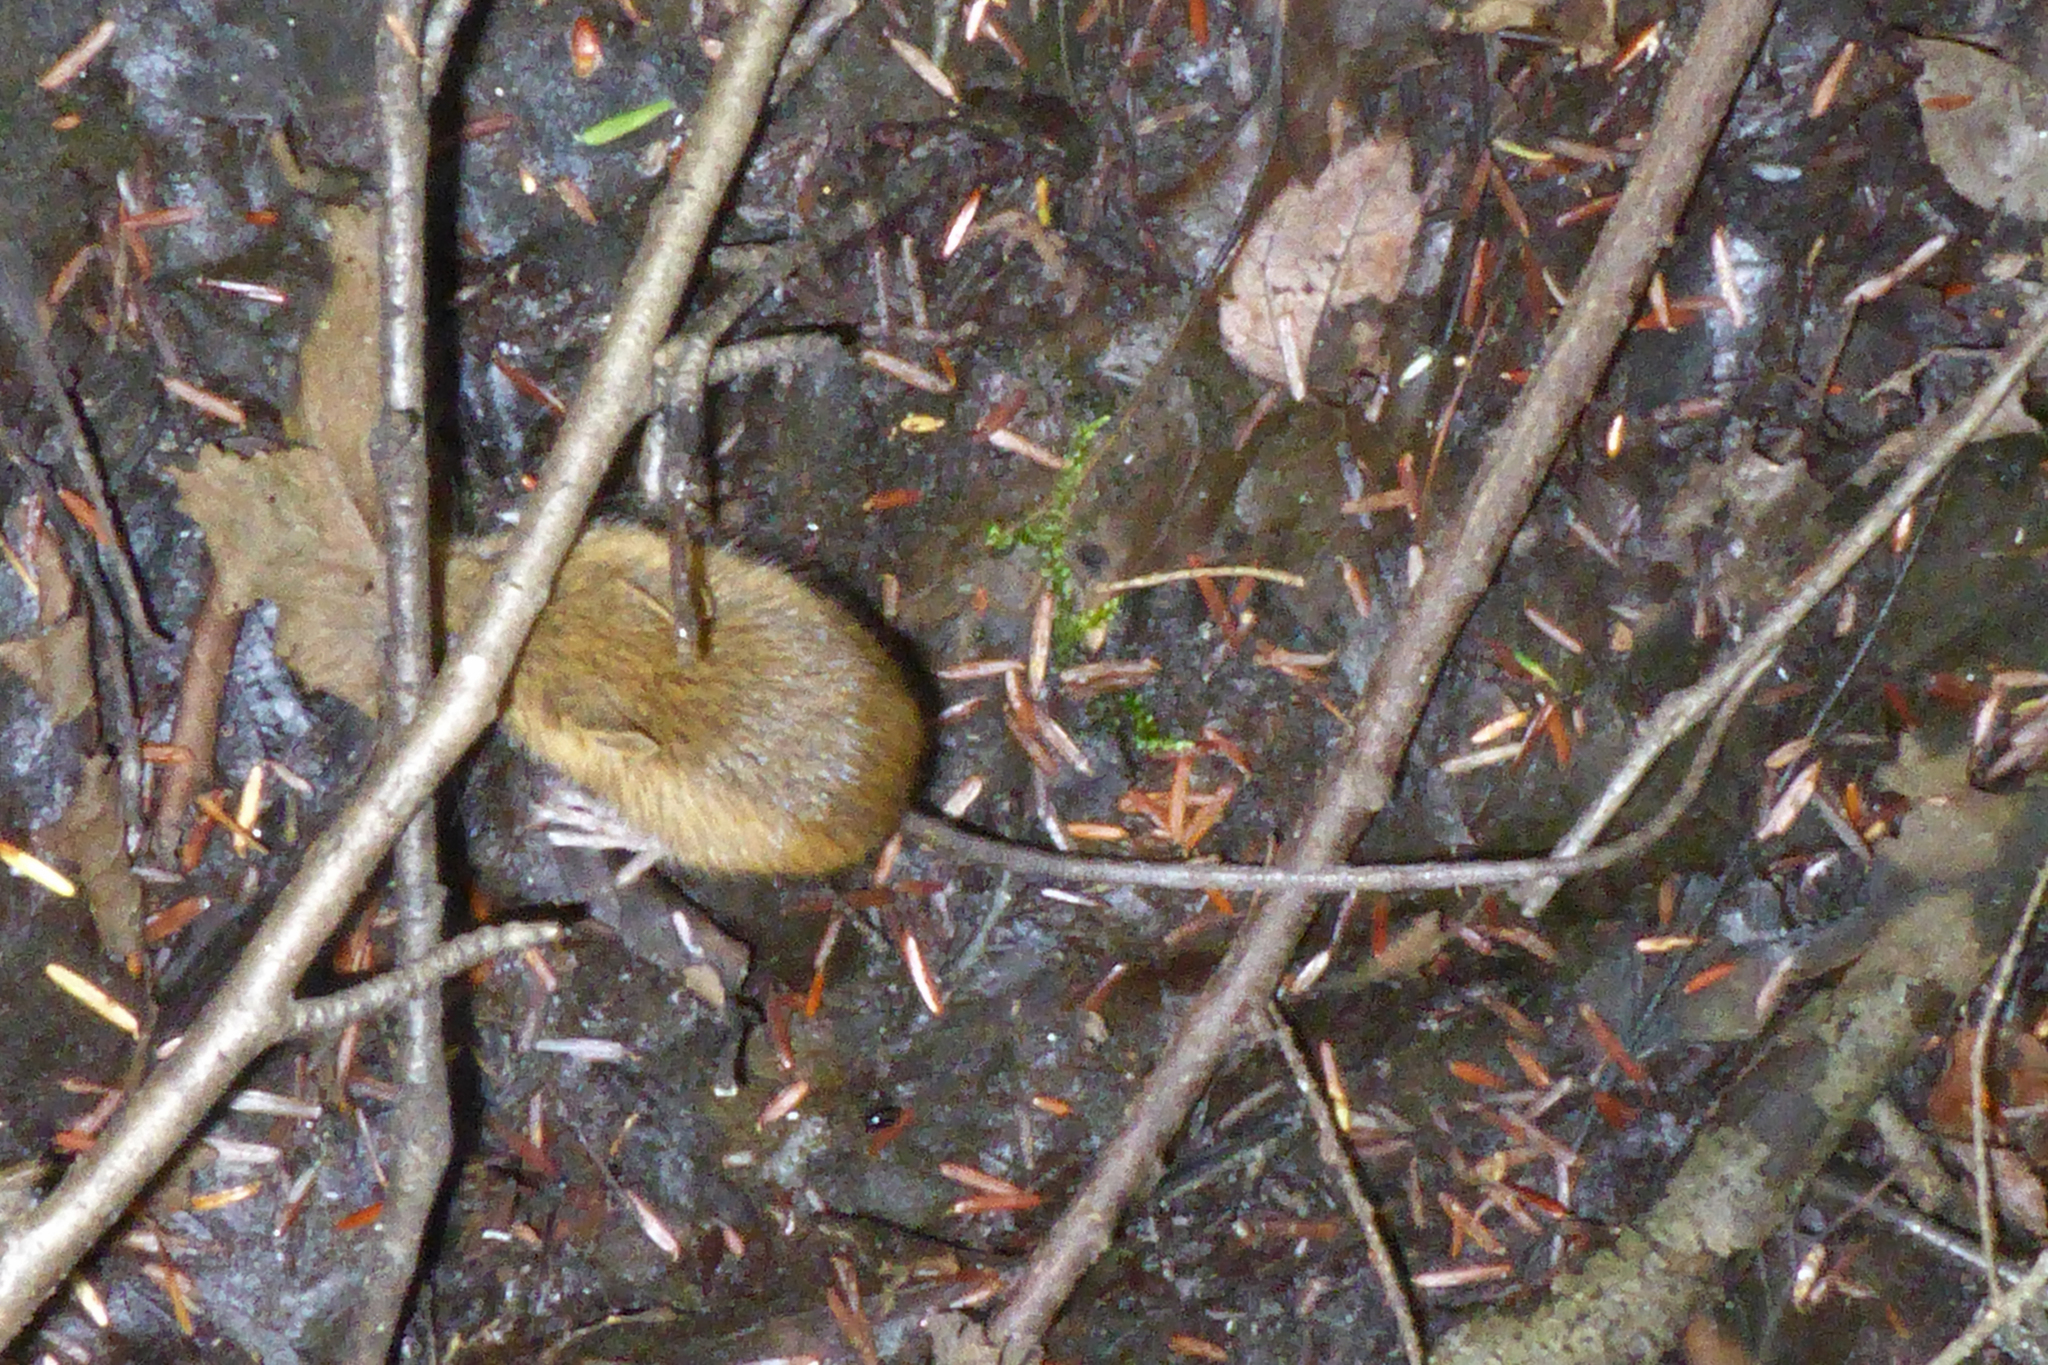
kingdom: Animalia
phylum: Chordata
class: Mammalia
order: Rodentia
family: Dipodidae
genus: Napaeozapus
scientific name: Napaeozapus insignis
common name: Woodland jumping mouse
